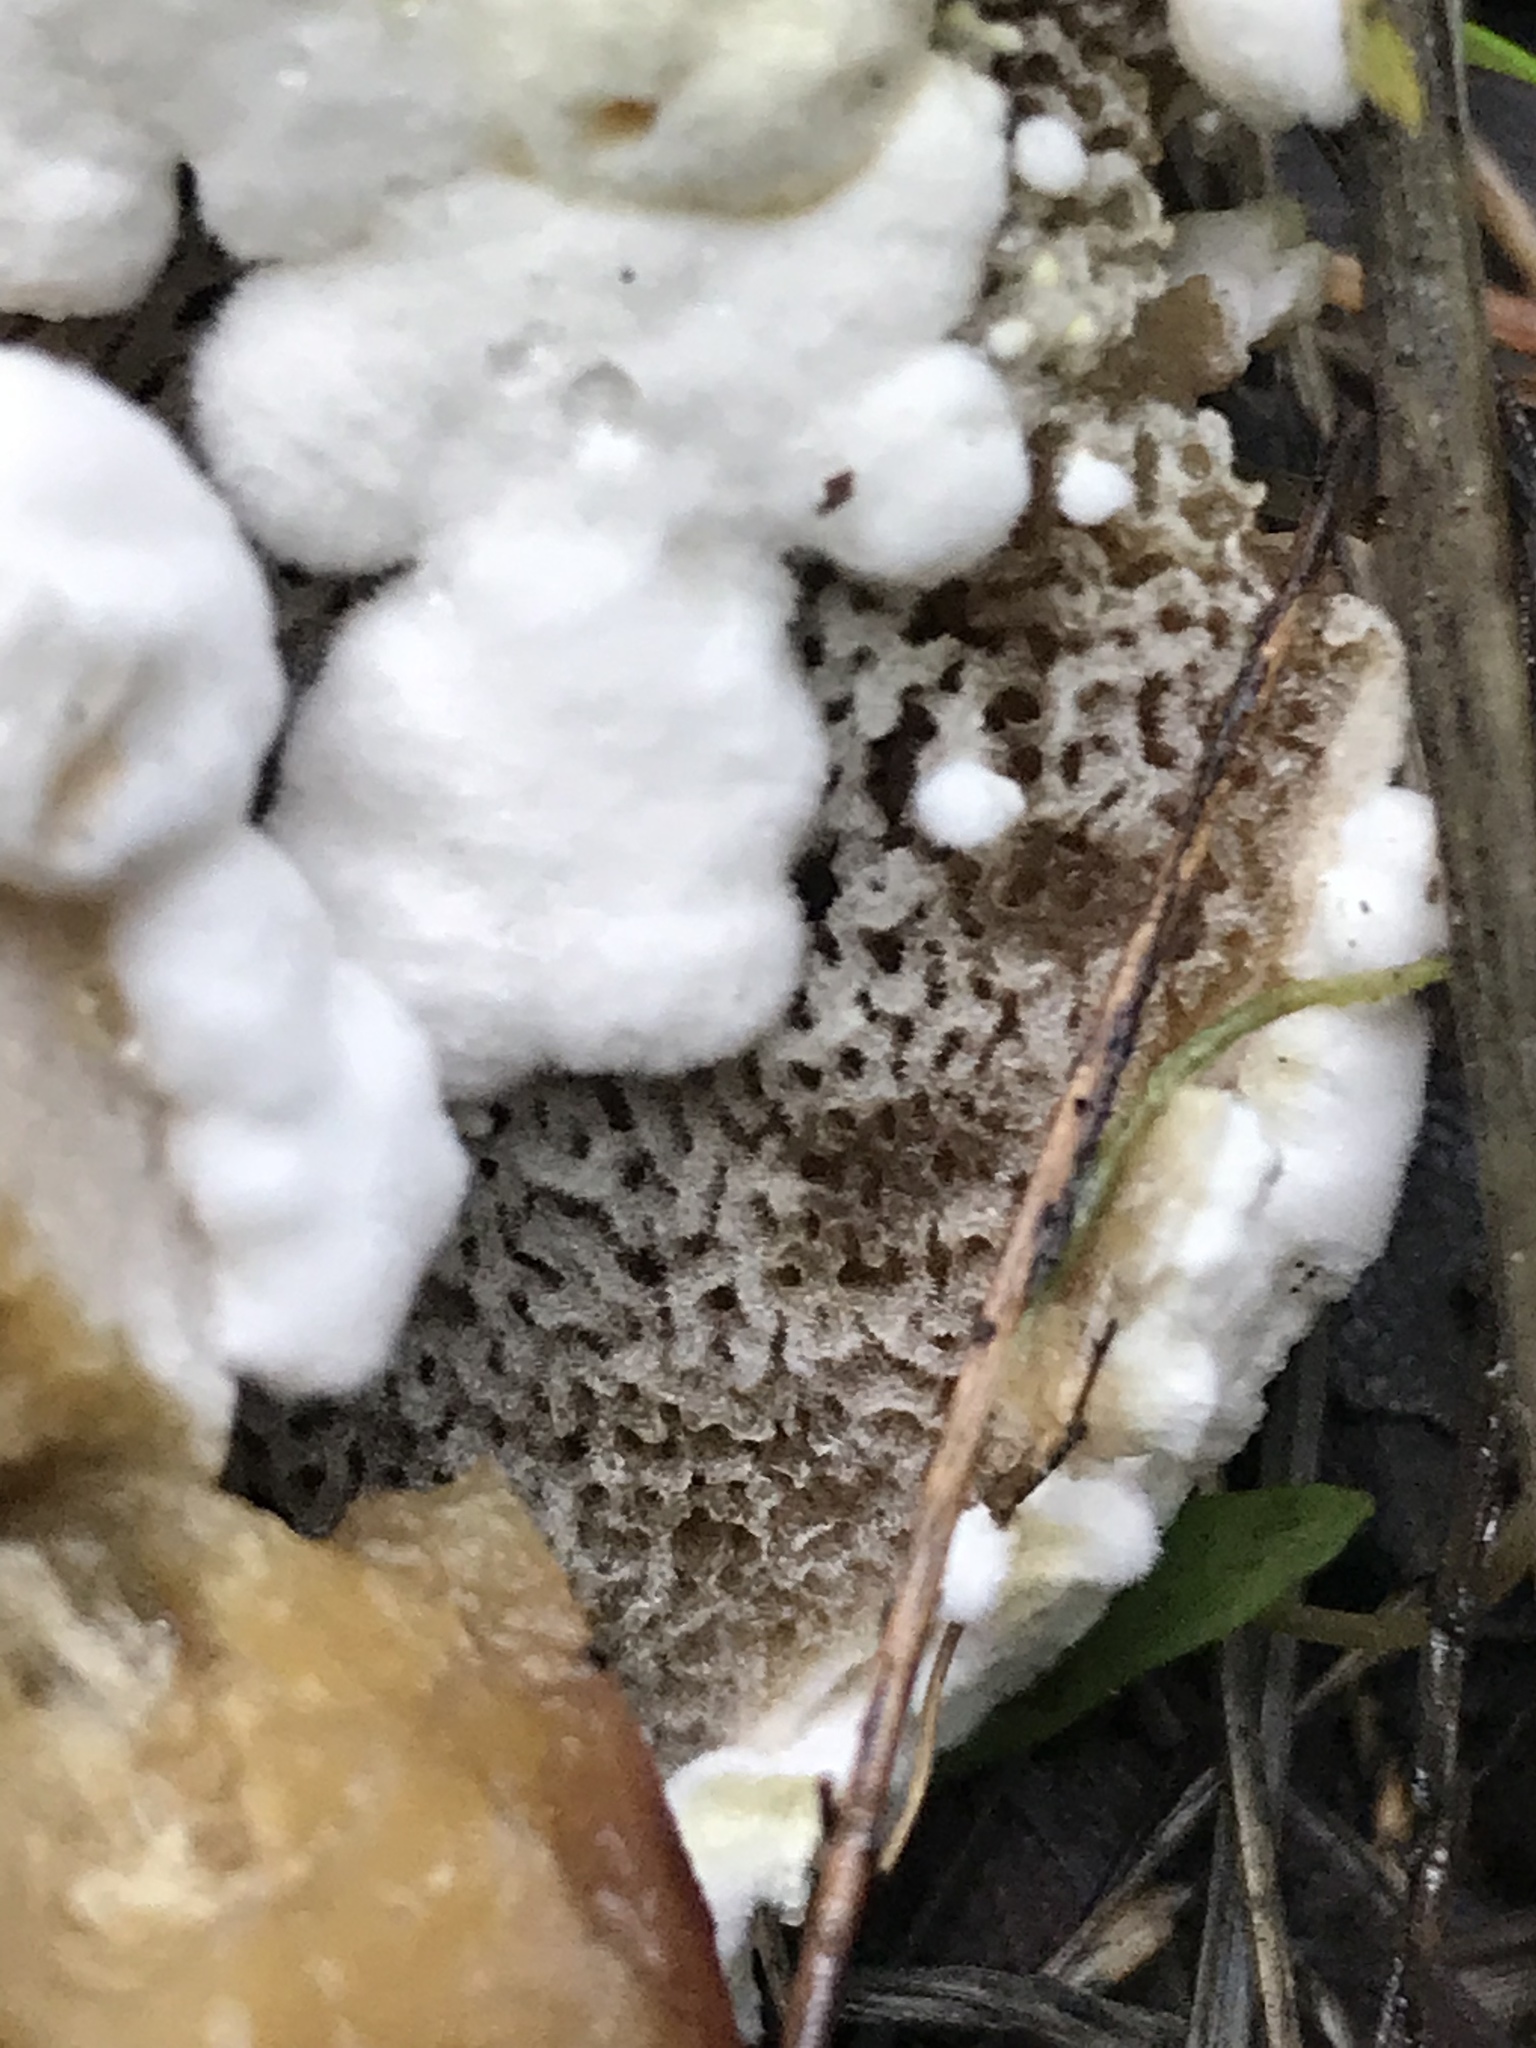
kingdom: Fungi
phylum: Ascomycota
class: Sordariomycetes
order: Hypocreales
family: Hypocreaceae
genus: Hypomyces
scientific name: Hypomyces chrysospermus
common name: Bolete mould
